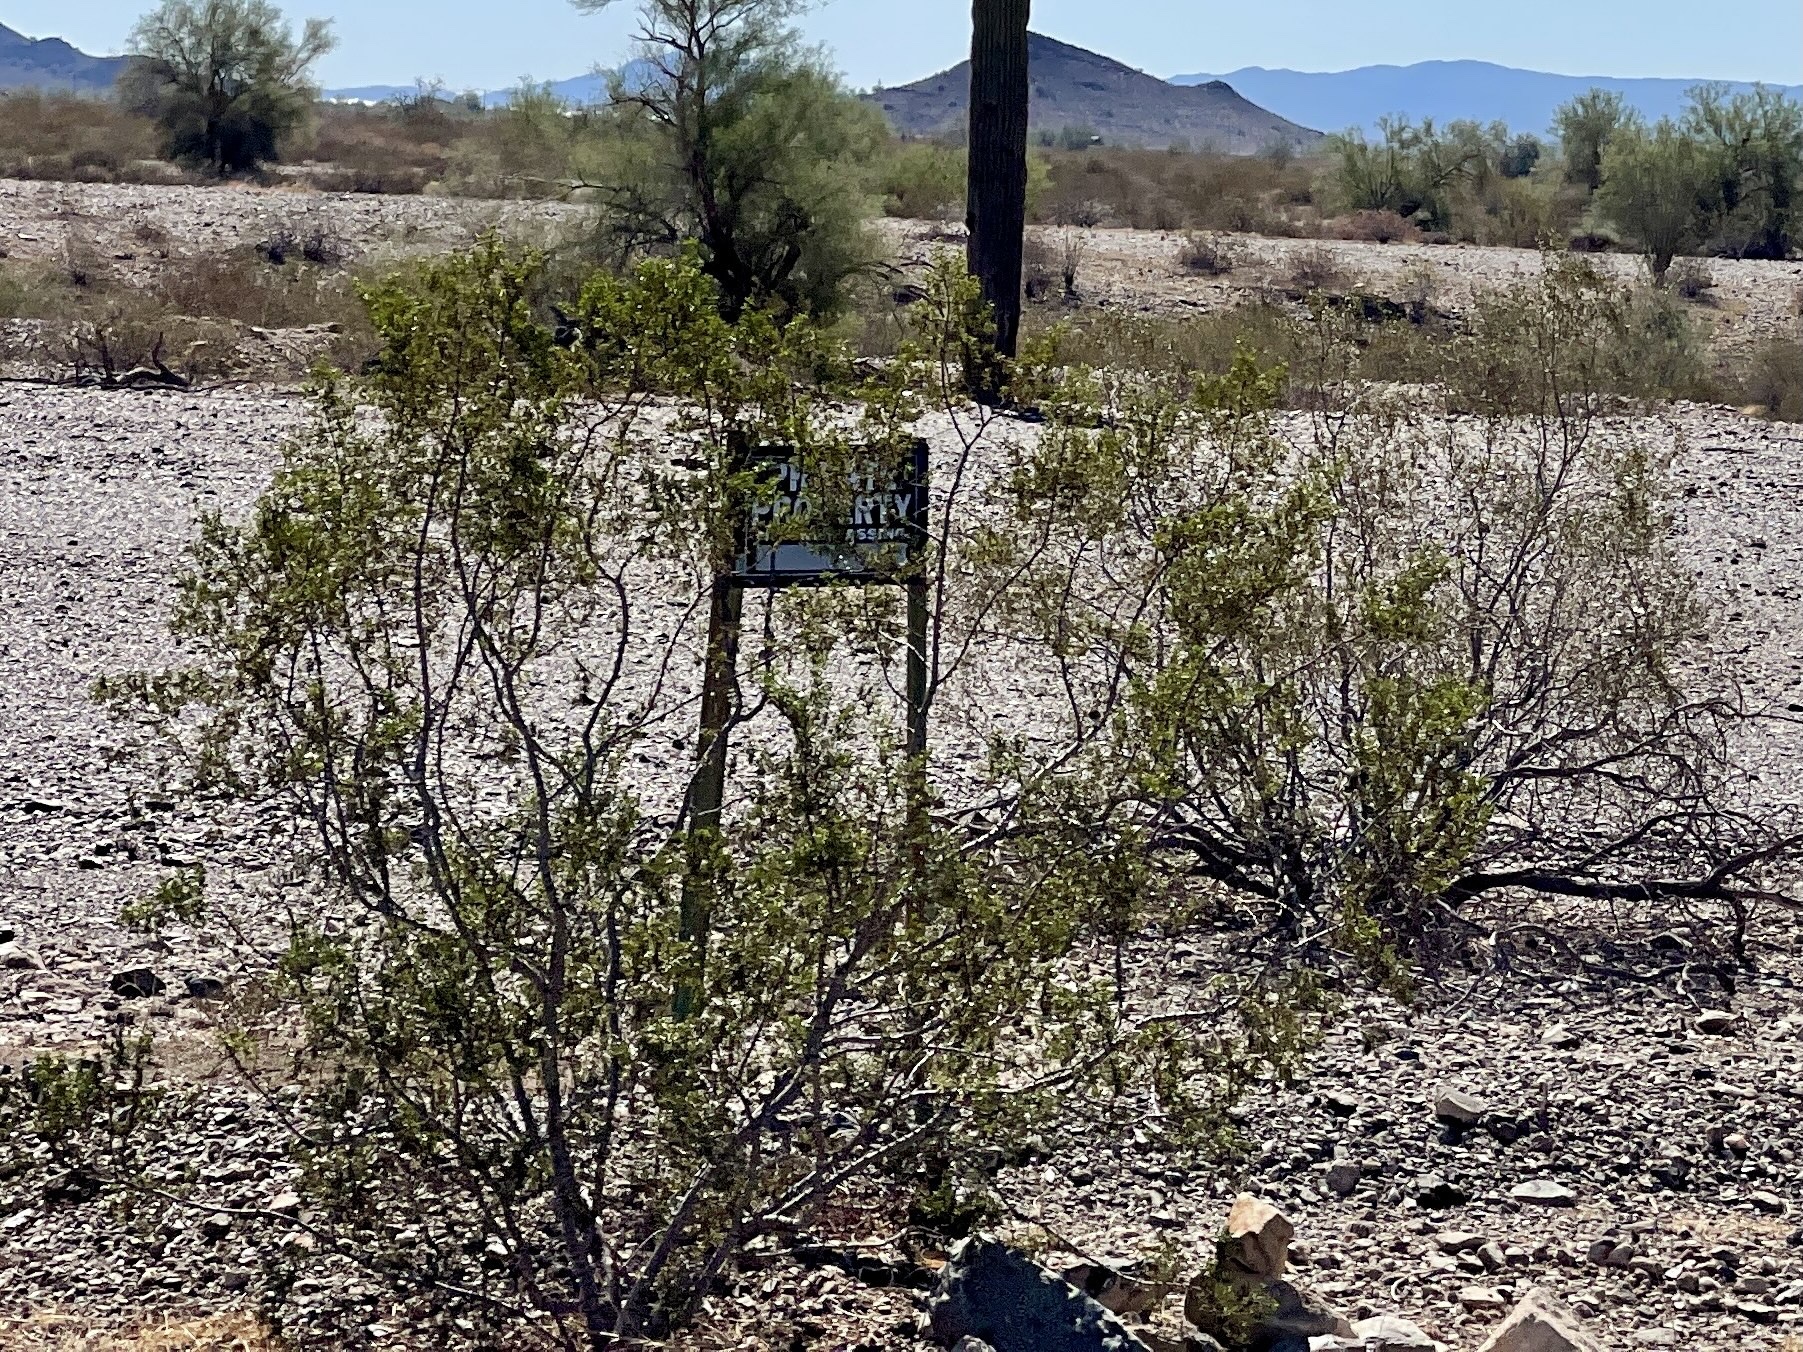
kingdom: Plantae
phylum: Tracheophyta
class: Magnoliopsida
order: Zygophyllales
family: Zygophyllaceae
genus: Larrea
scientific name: Larrea tridentata
